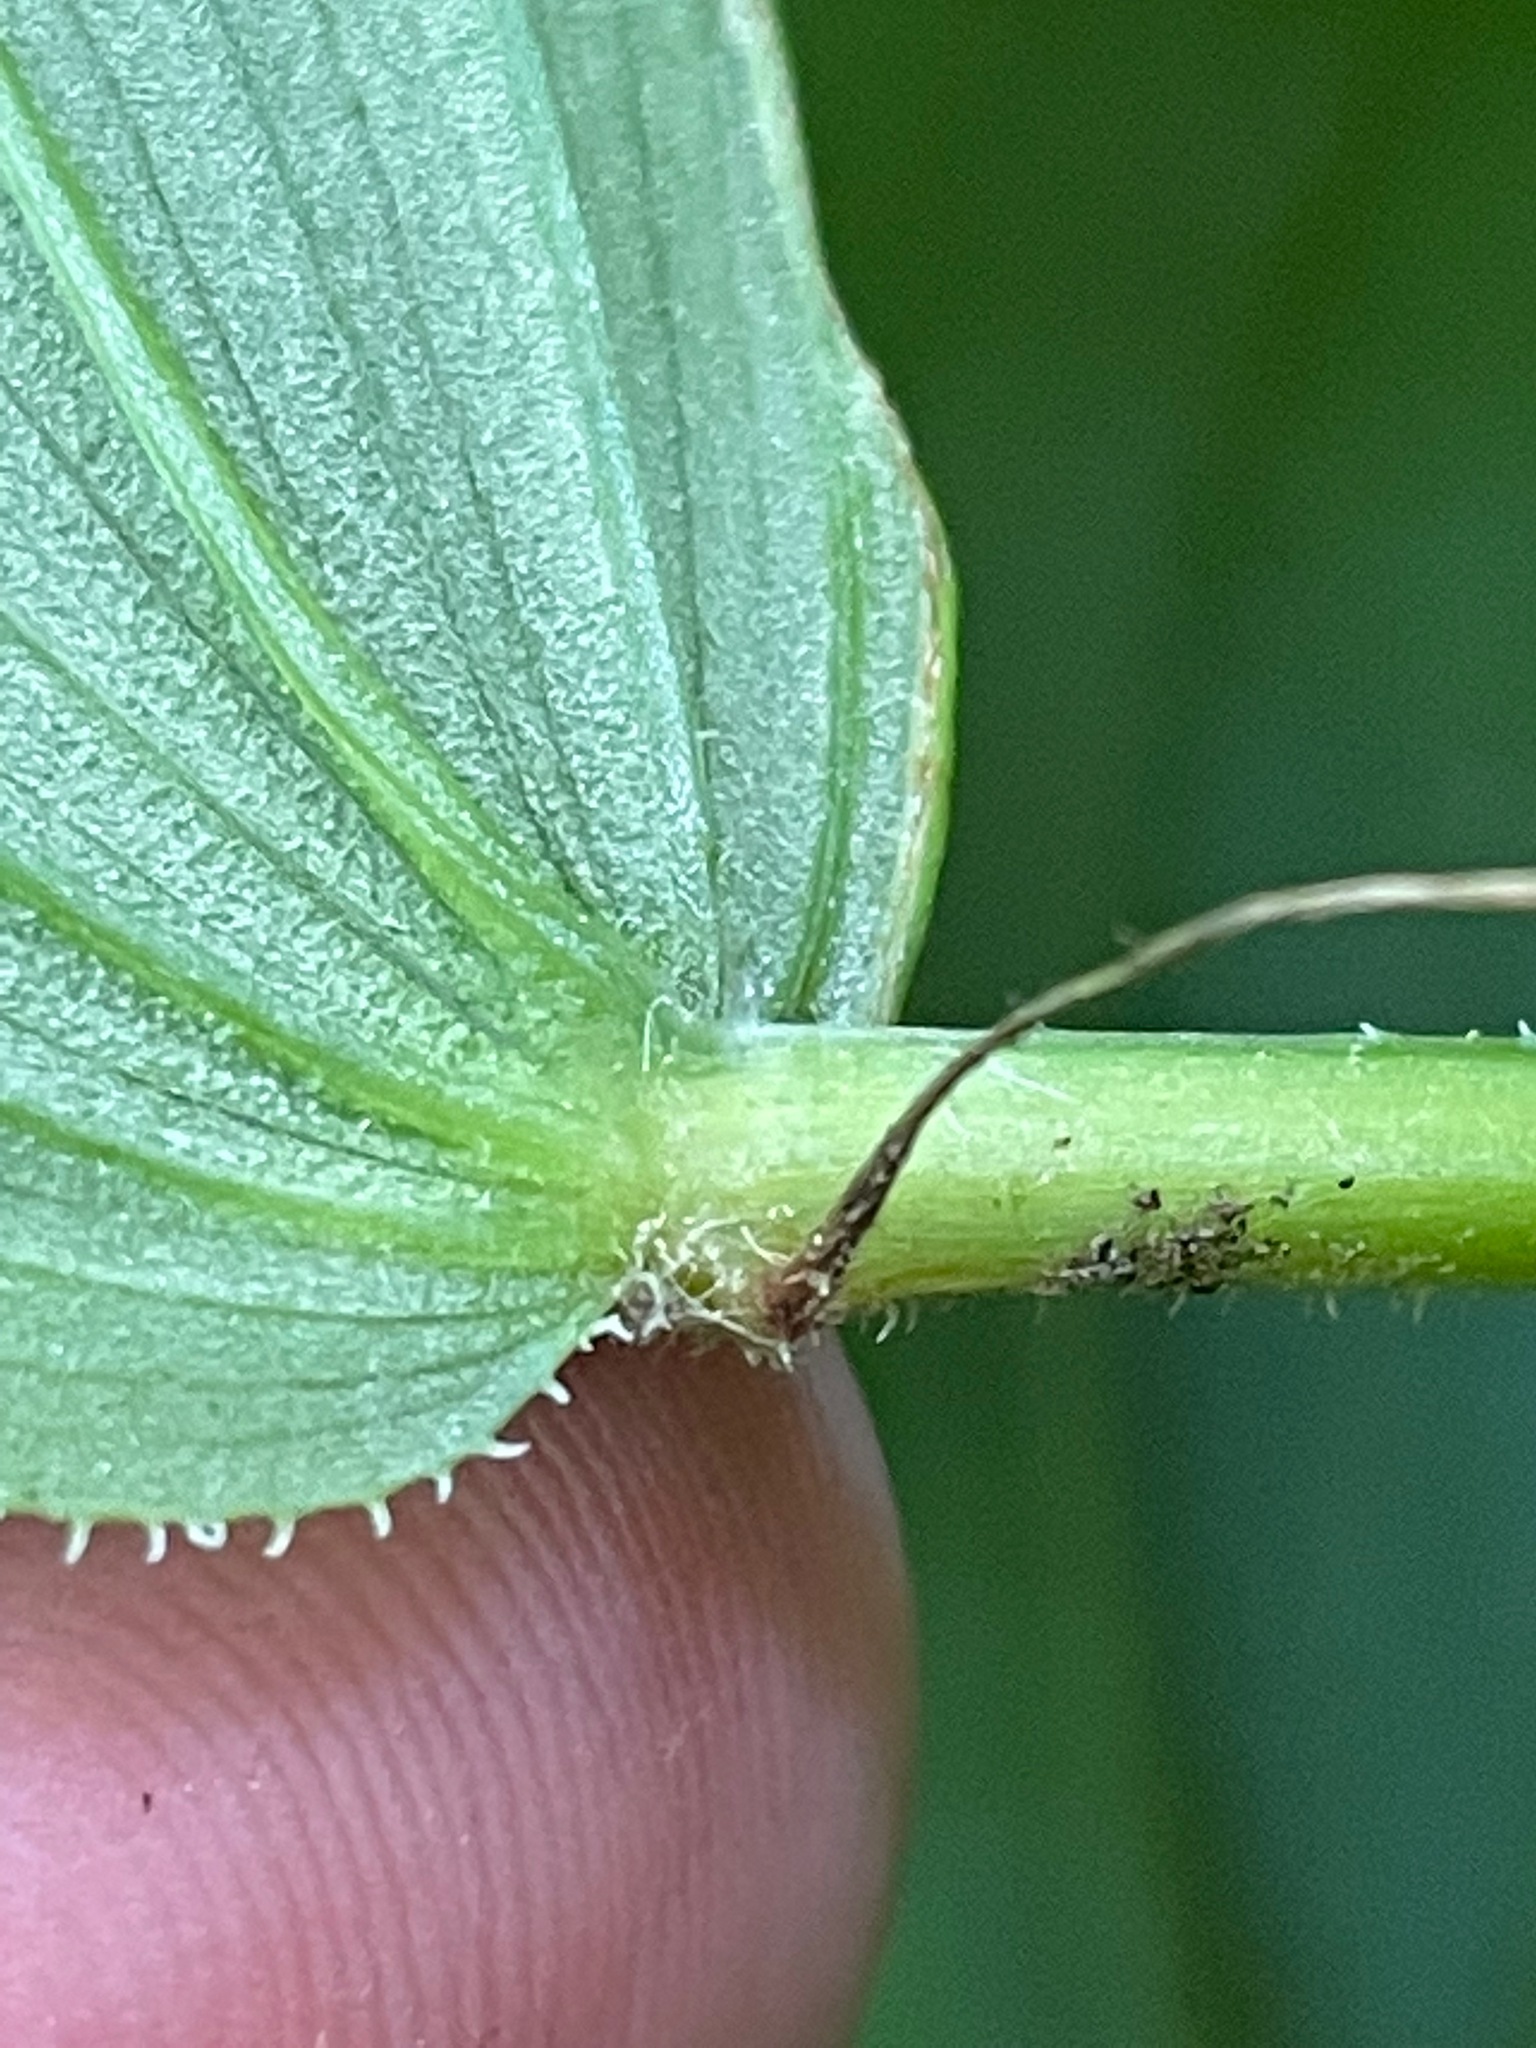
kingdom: Plantae
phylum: Tracheophyta
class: Liliopsida
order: Liliales
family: Liliaceae
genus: Streptopus
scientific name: Streptopus lanceolatus
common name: Rose mandarin
